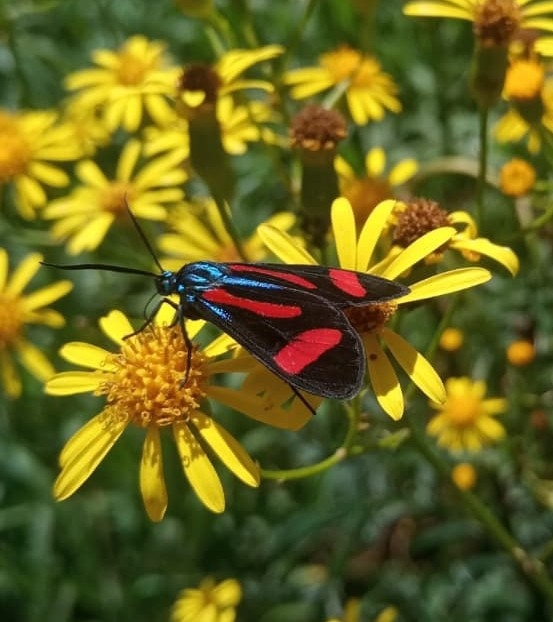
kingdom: Animalia
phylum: Arthropoda
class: Insecta
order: Lepidoptera
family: Erebidae
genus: Cyanopepla
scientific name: Cyanopepla jucunda
